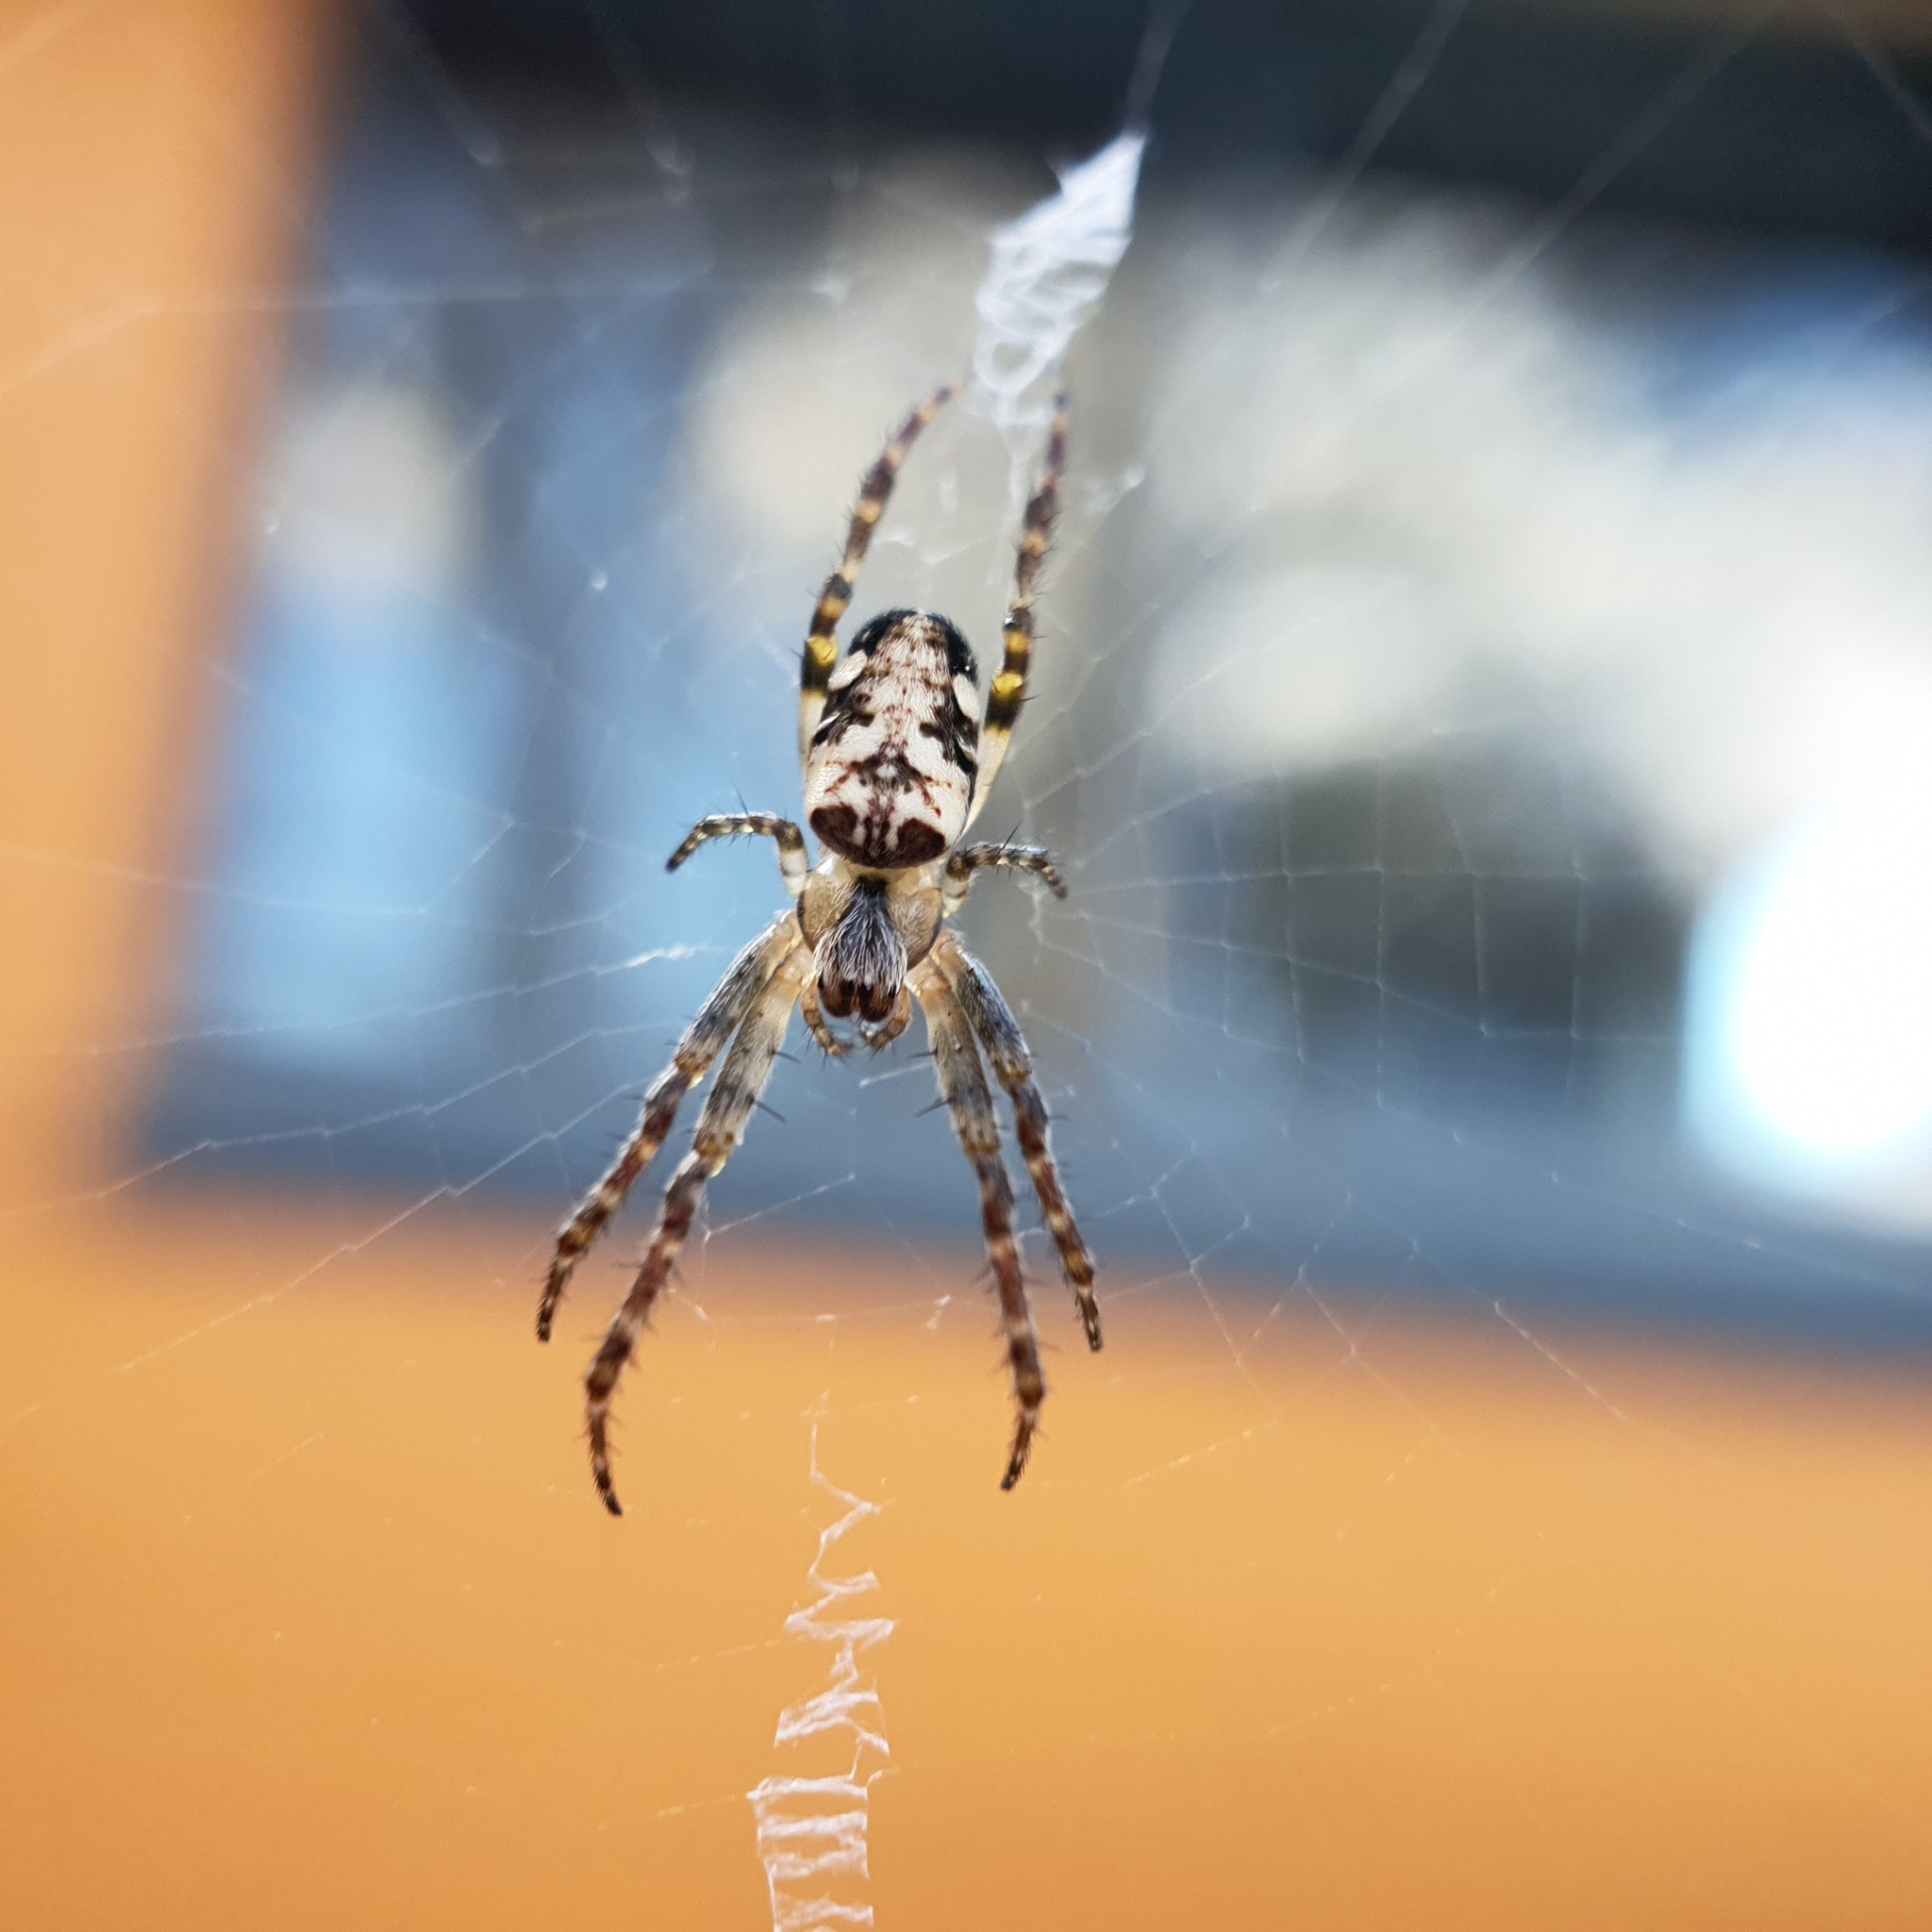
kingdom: Animalia
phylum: Arthropoda
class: Arachnida
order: Araneae
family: Araneidae
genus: Plebs
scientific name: Plebs eburnus
